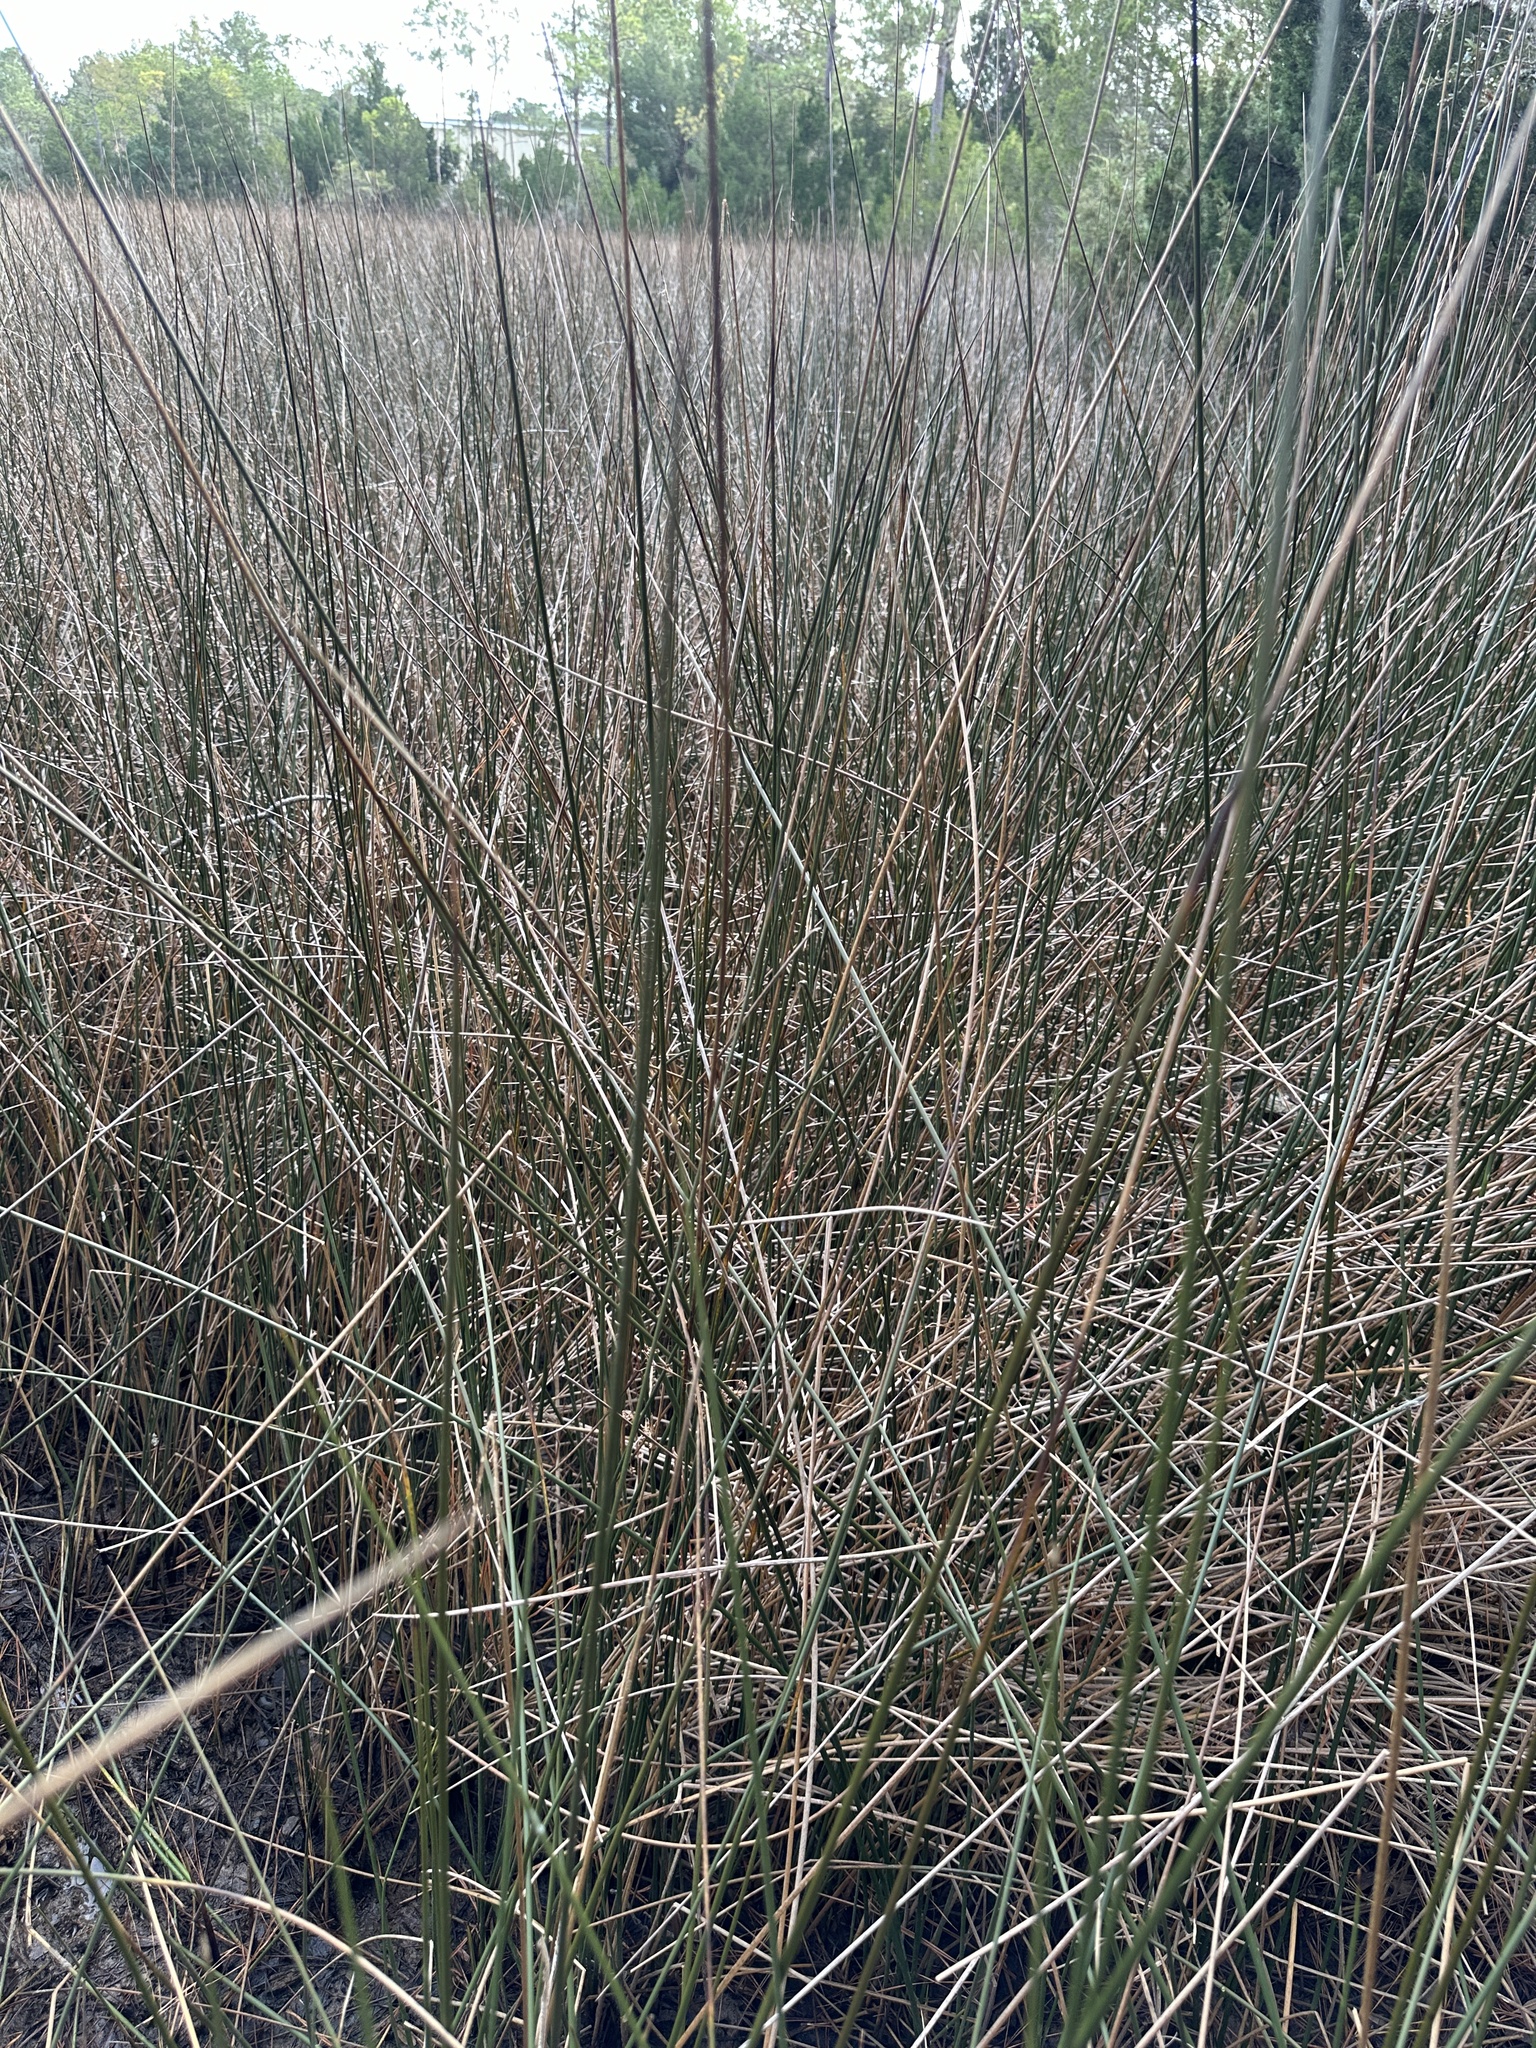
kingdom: Plantae
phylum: Tracheophyta
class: Liliopsida
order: Poales
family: Juncaceae
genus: Juncus
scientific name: Juncus roemerianus
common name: Roemer's rush
